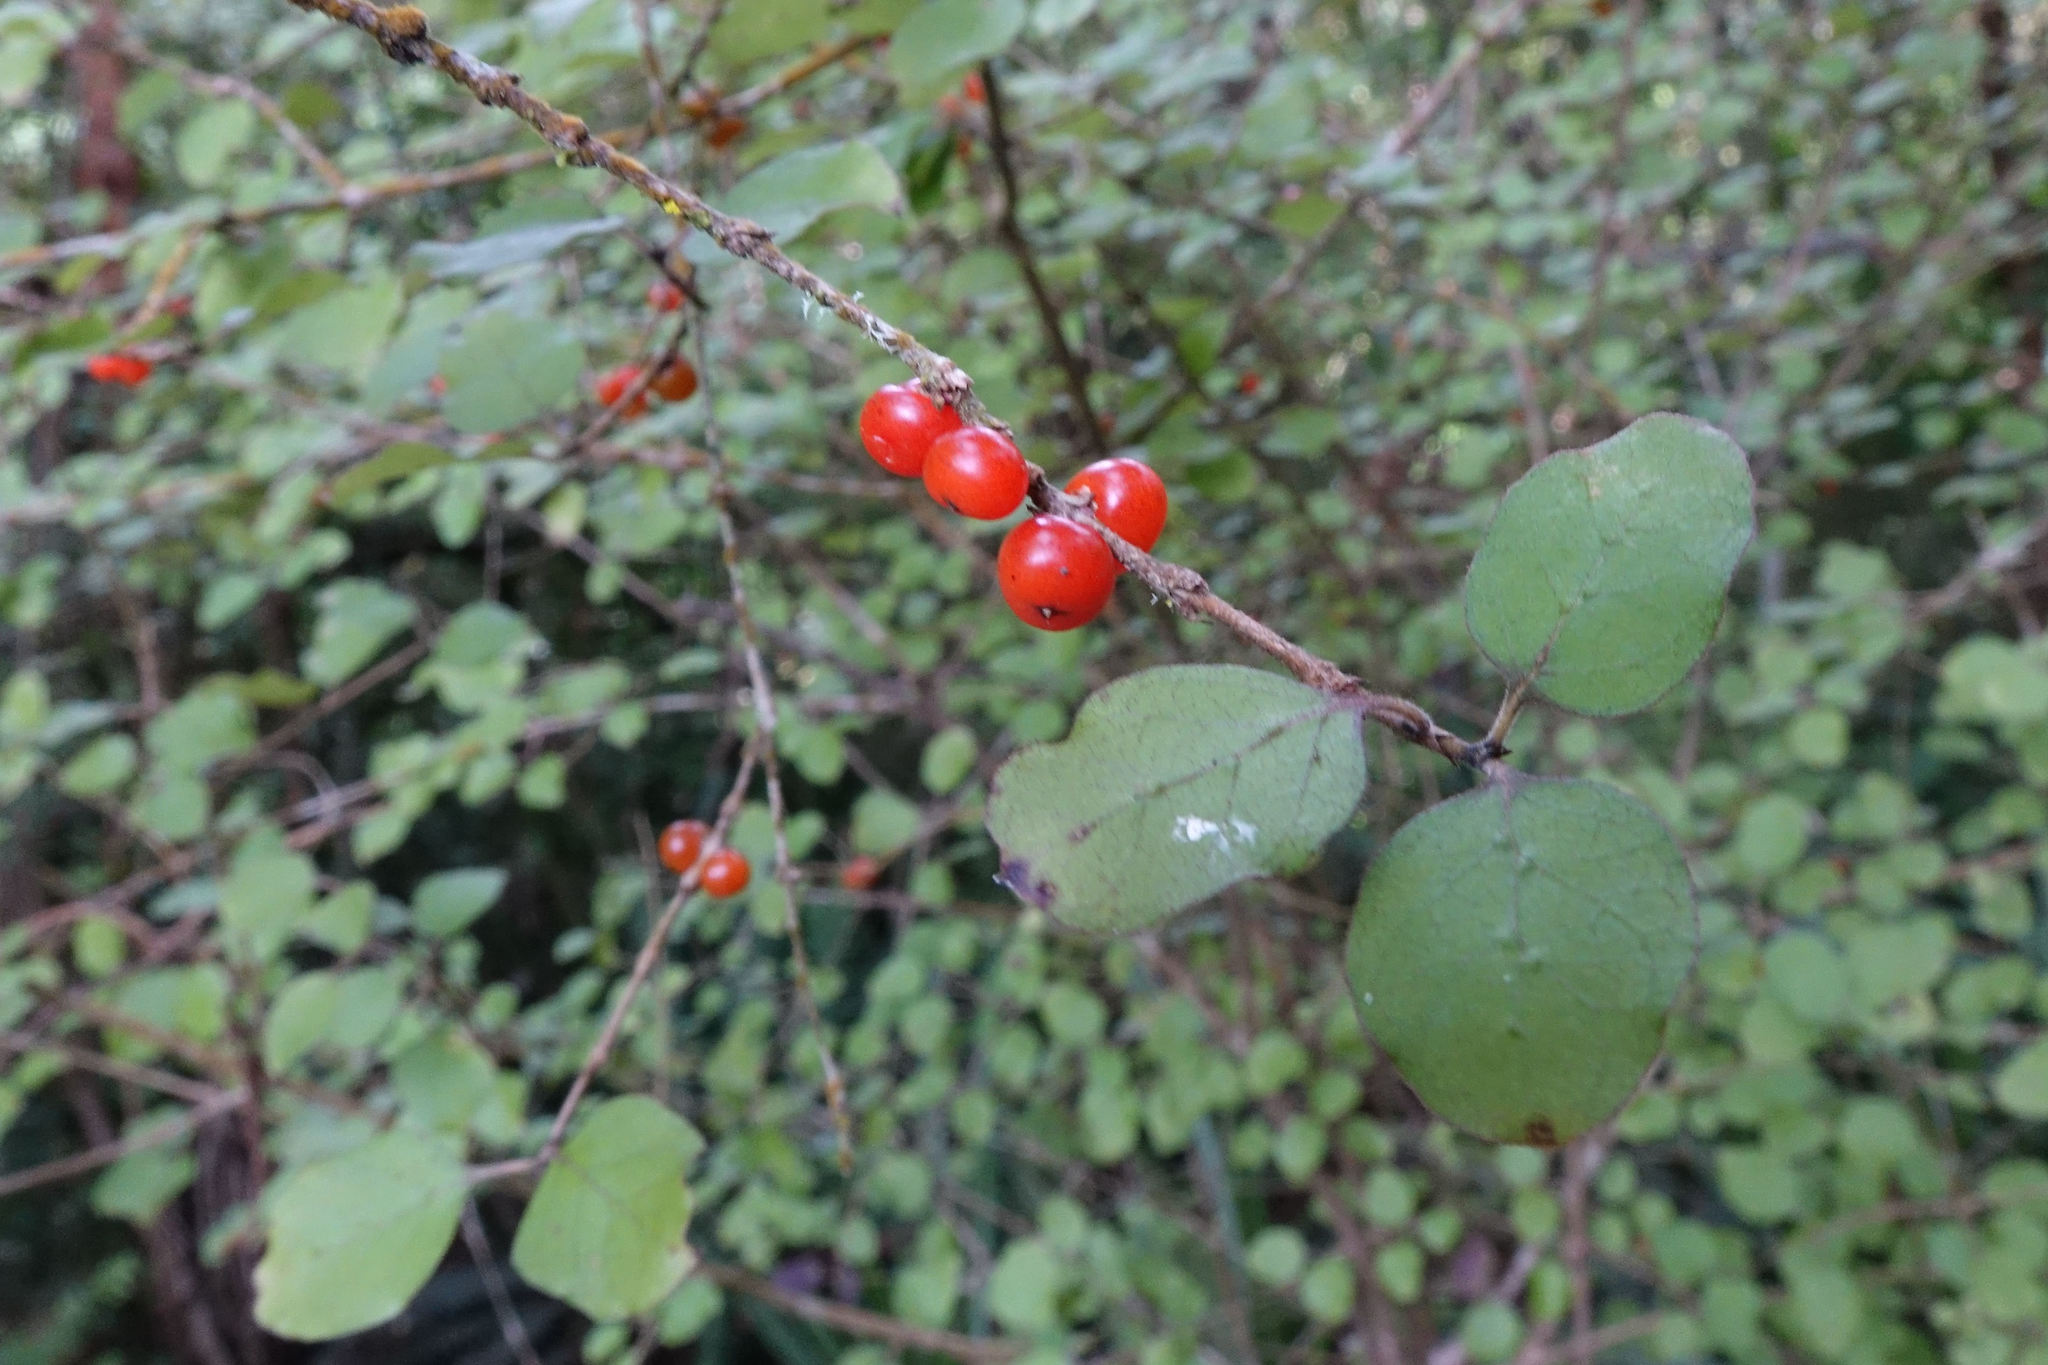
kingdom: Plantae
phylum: Tracheophyta
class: Magnoliopsida
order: Gentianales
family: Rubiaceae
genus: Coprosma
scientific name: Coprosma rotundifolia
